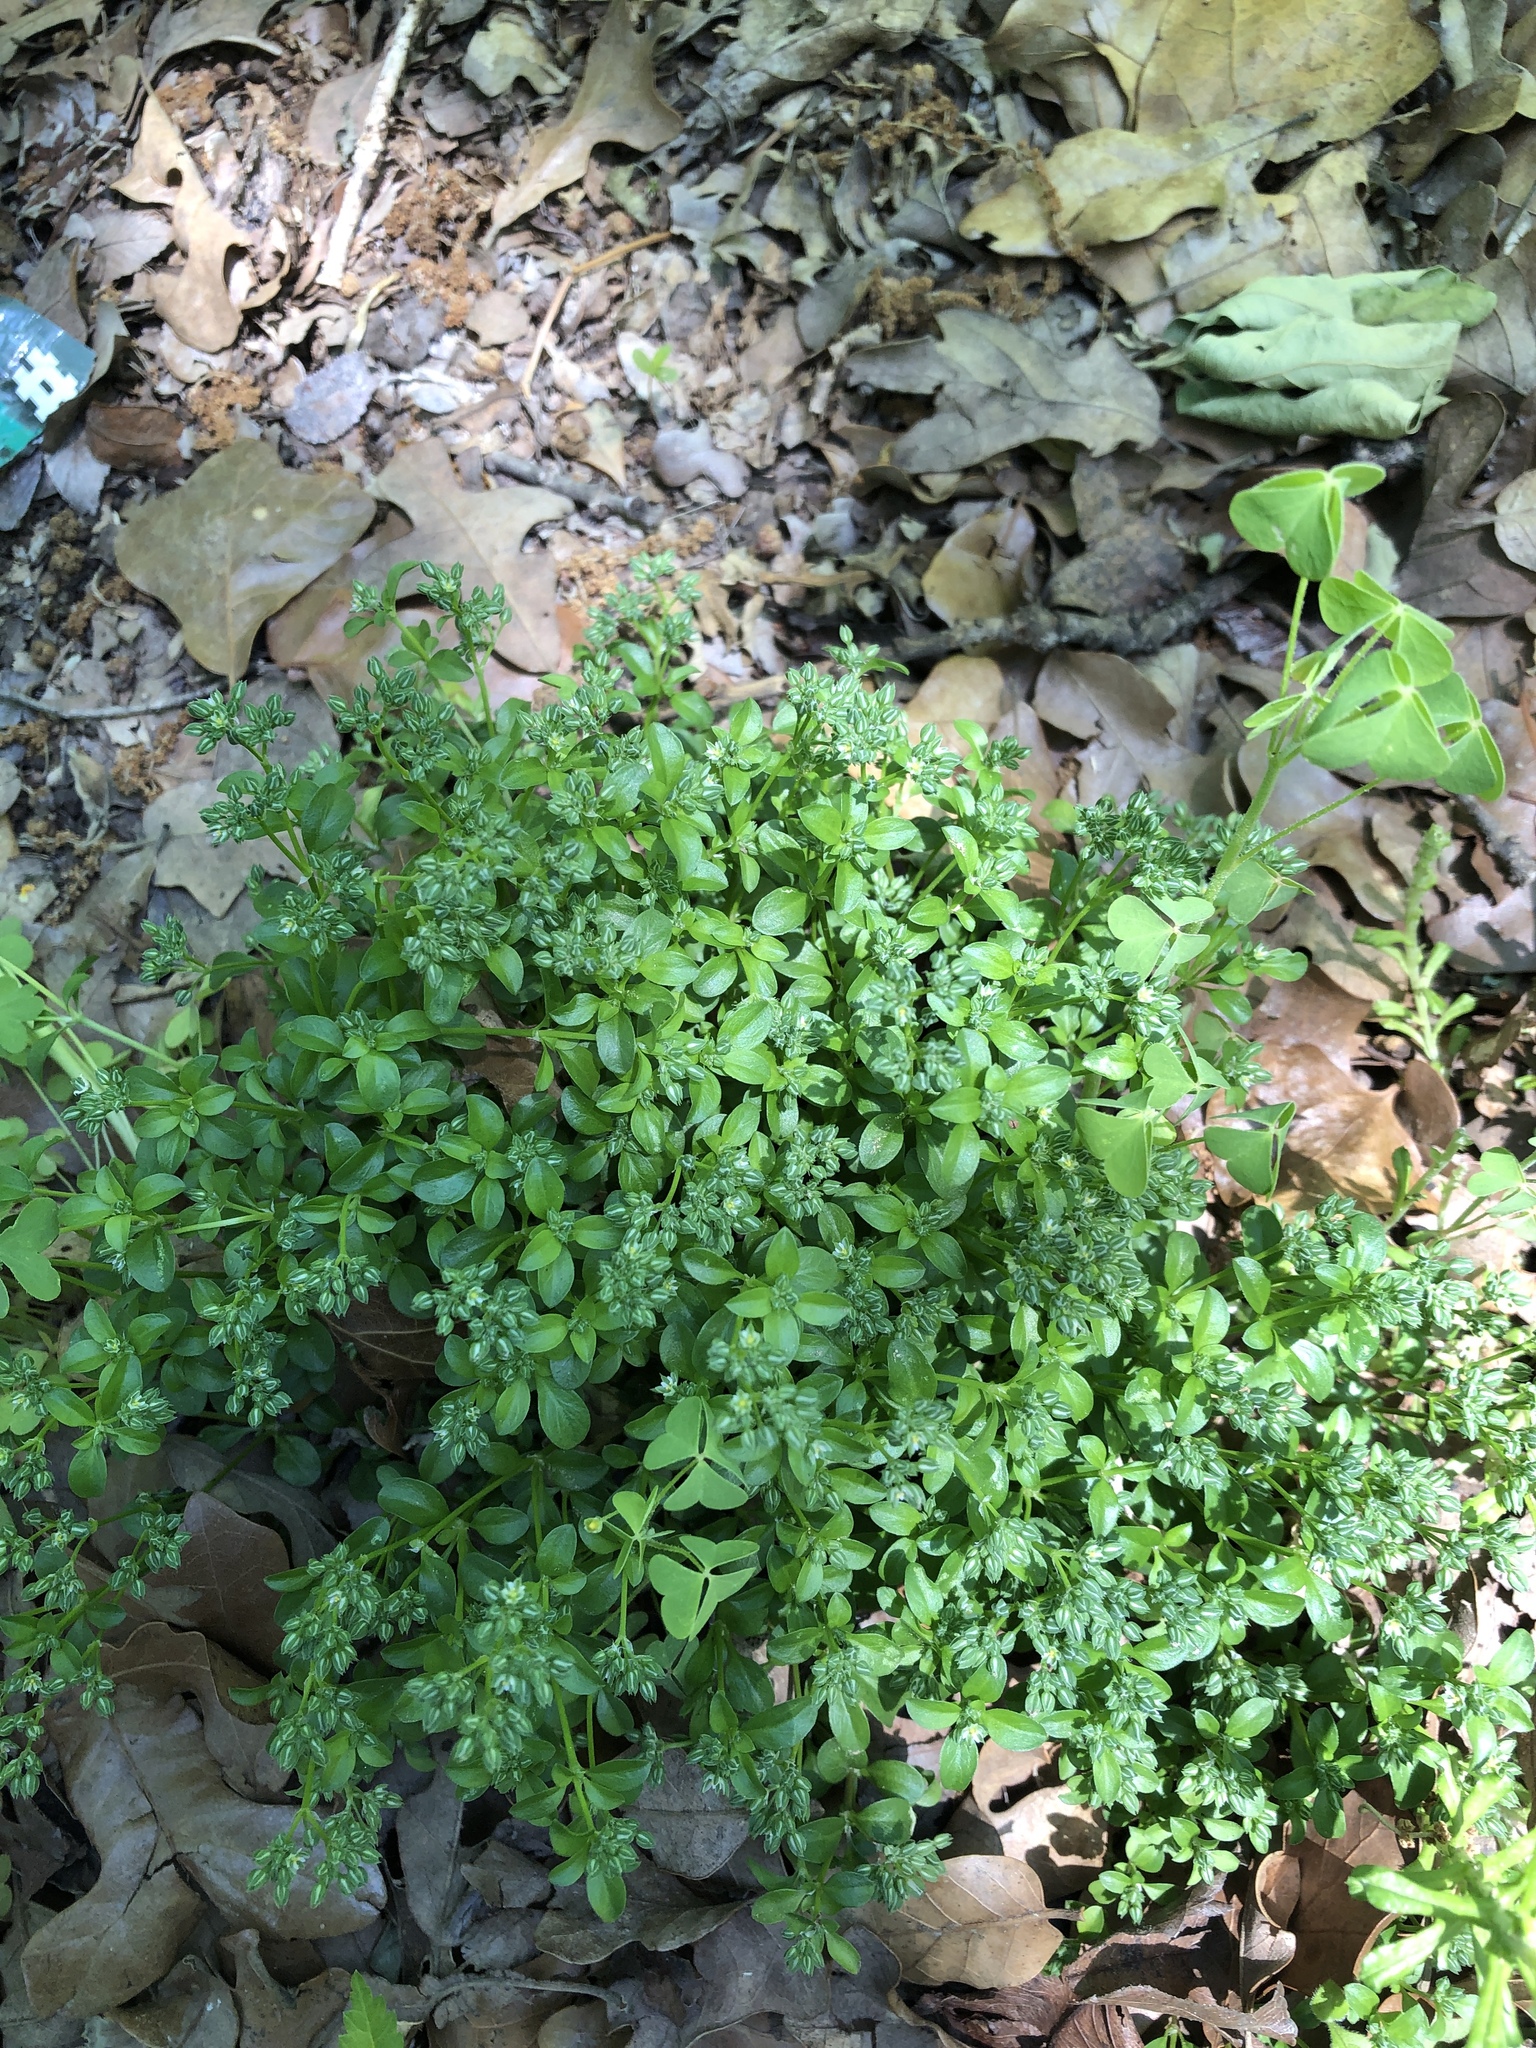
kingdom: Plantae
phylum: Tracheophyta
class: Magnoliopsida
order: Caryophyllales
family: Caryophyllaceae
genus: Polycarpon
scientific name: Polycarpon tetraphyllum
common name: Four-leaved all-seed
